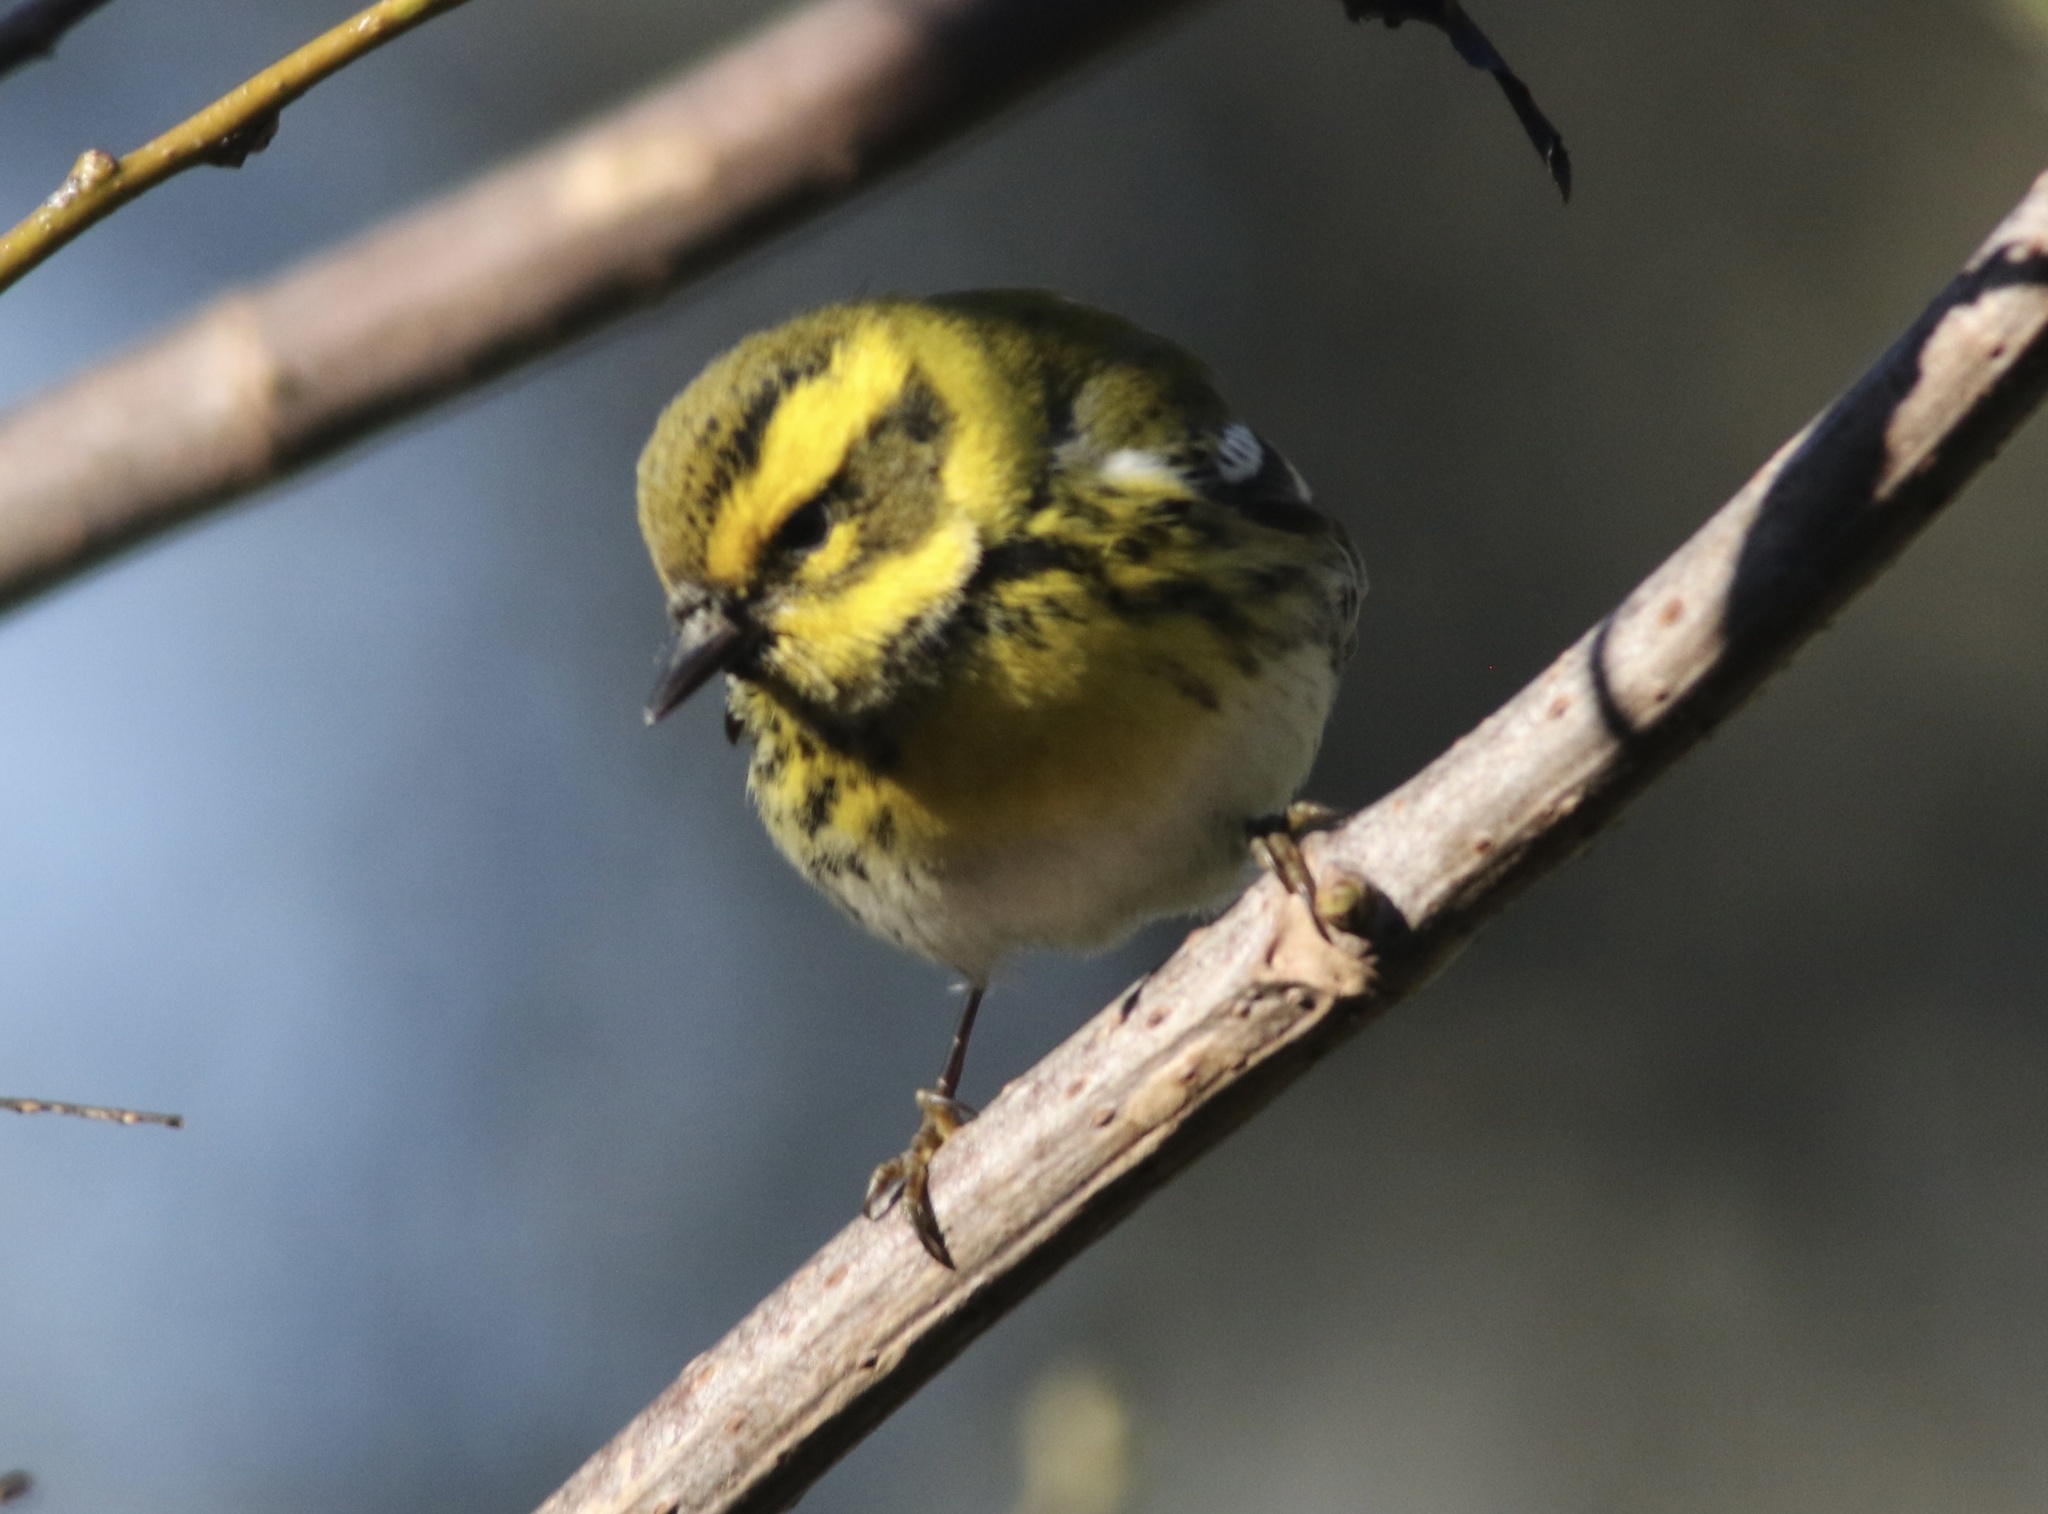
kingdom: Animalia
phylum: Chordata
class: Aves
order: Passeriformes
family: Parulidae
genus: Setophaga
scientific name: Setophaga townsendi
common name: Townsend's warbler
